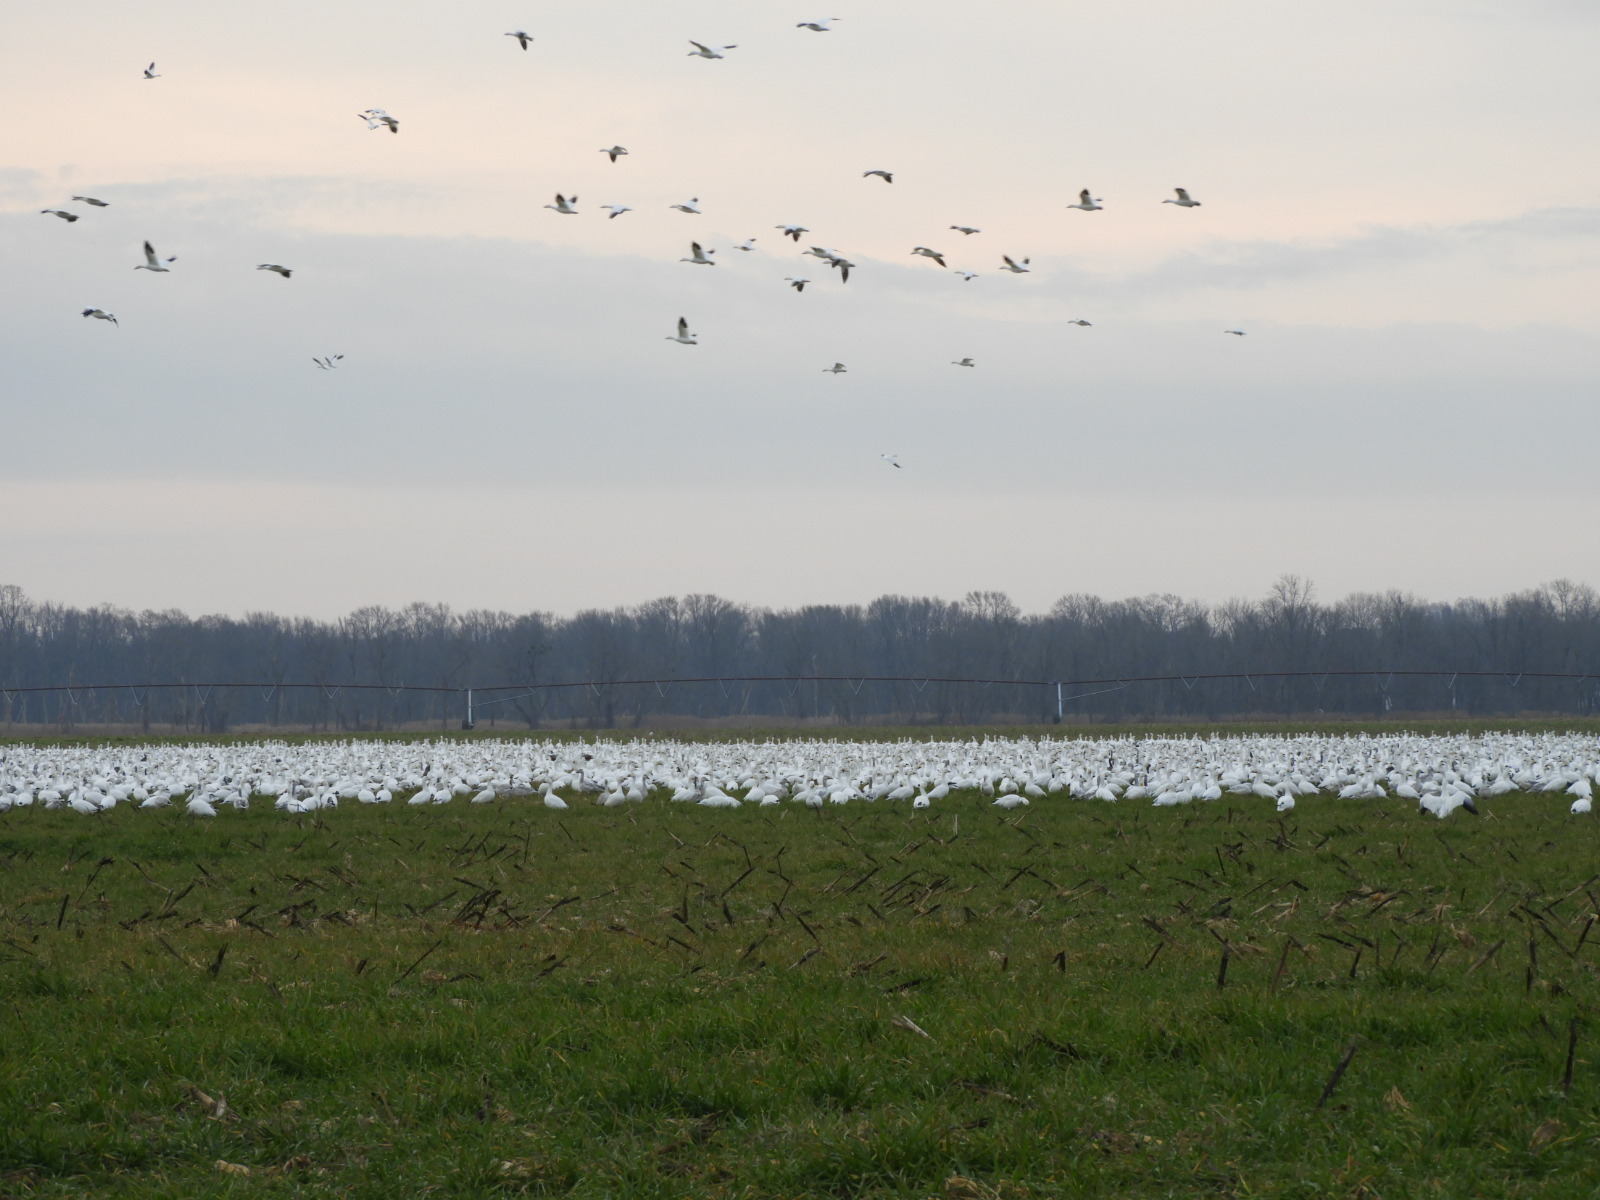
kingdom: Animalia
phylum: Chordata
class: Aves
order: Anseriformes
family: Anatidae
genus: Anser
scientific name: Anser caerulescens
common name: Snow goose
